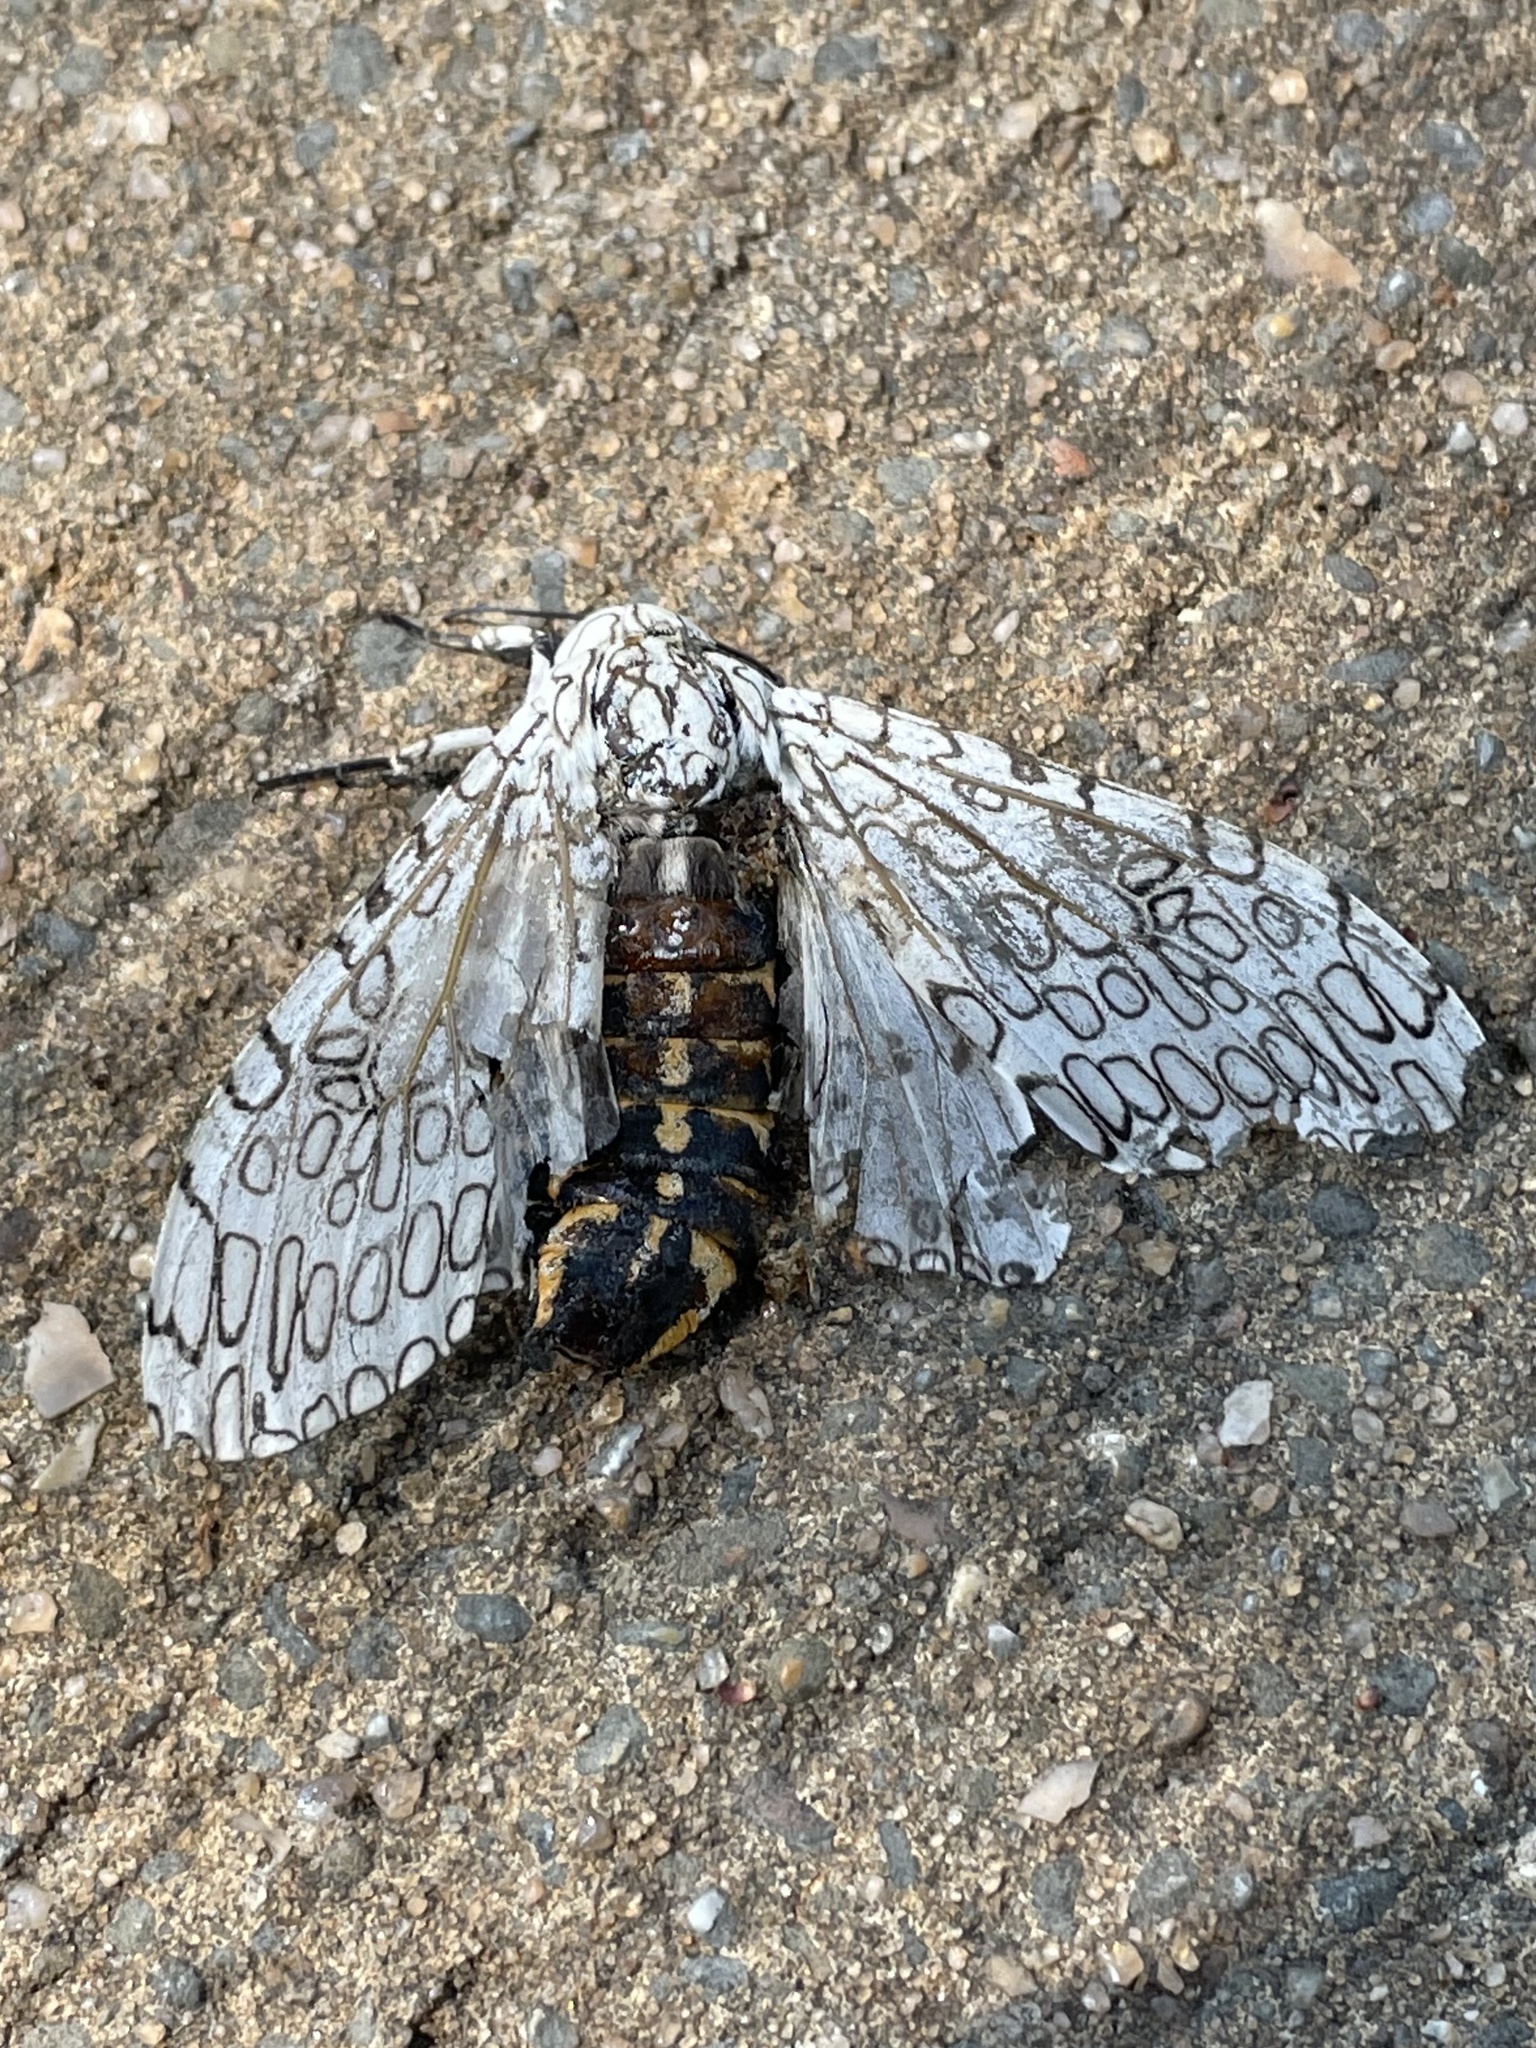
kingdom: Animalia
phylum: Arthropoda
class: Insecta
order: Lepidoptera
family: Erebidae
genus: Hypercompe
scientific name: Hypercompe scribonia
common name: Giant leopard moth
